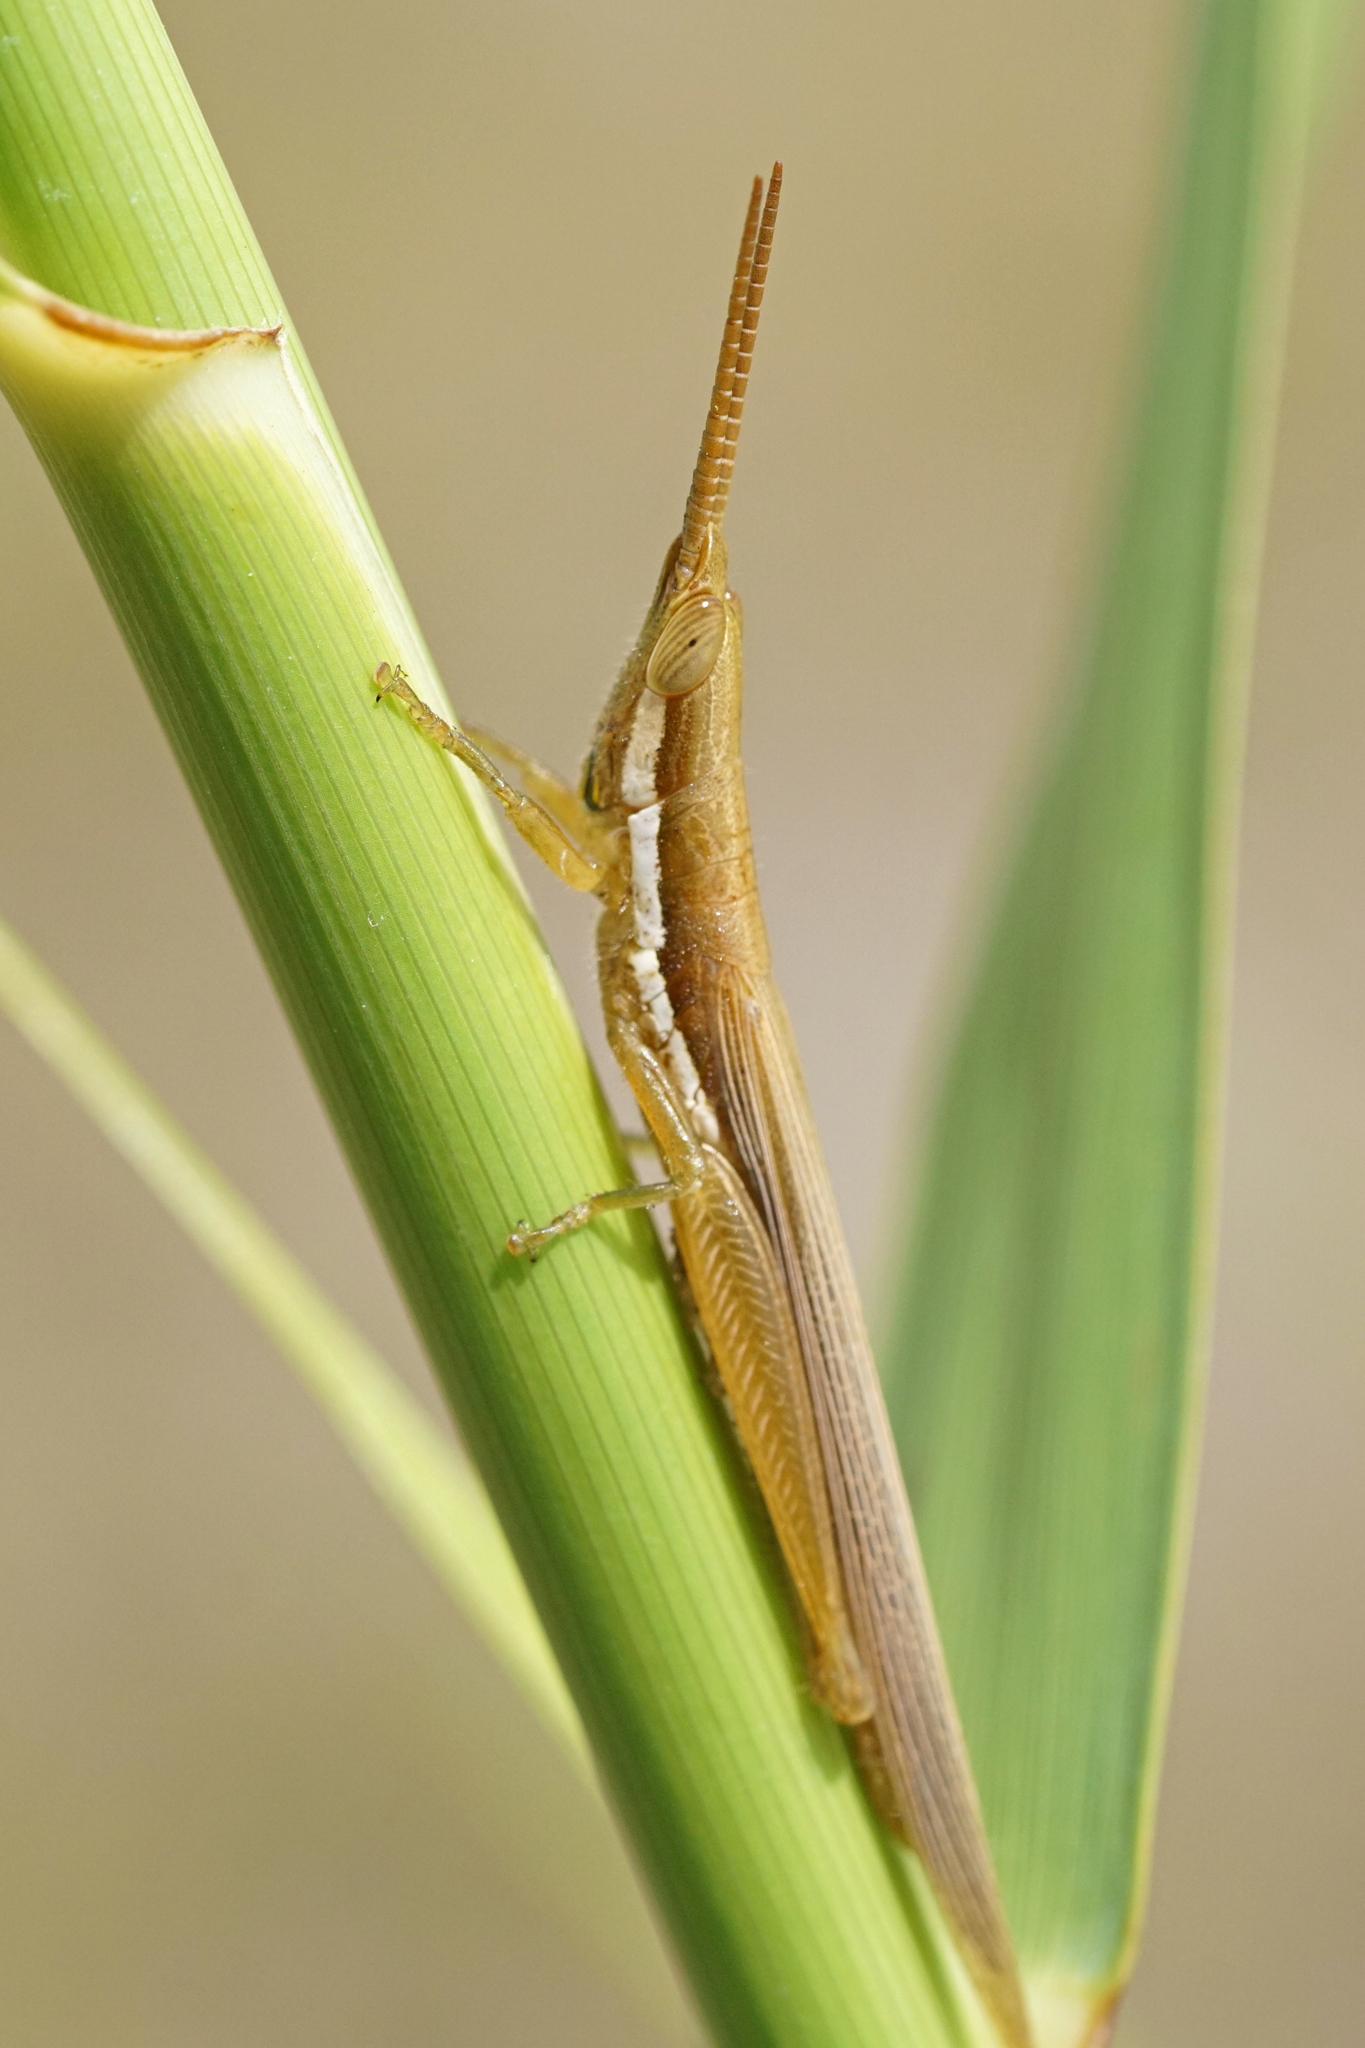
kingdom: Animalia
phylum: Arthropoda
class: Insecta
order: Orthoptera
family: Acrididae
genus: Leptysma
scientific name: Leptysma marginicollis
